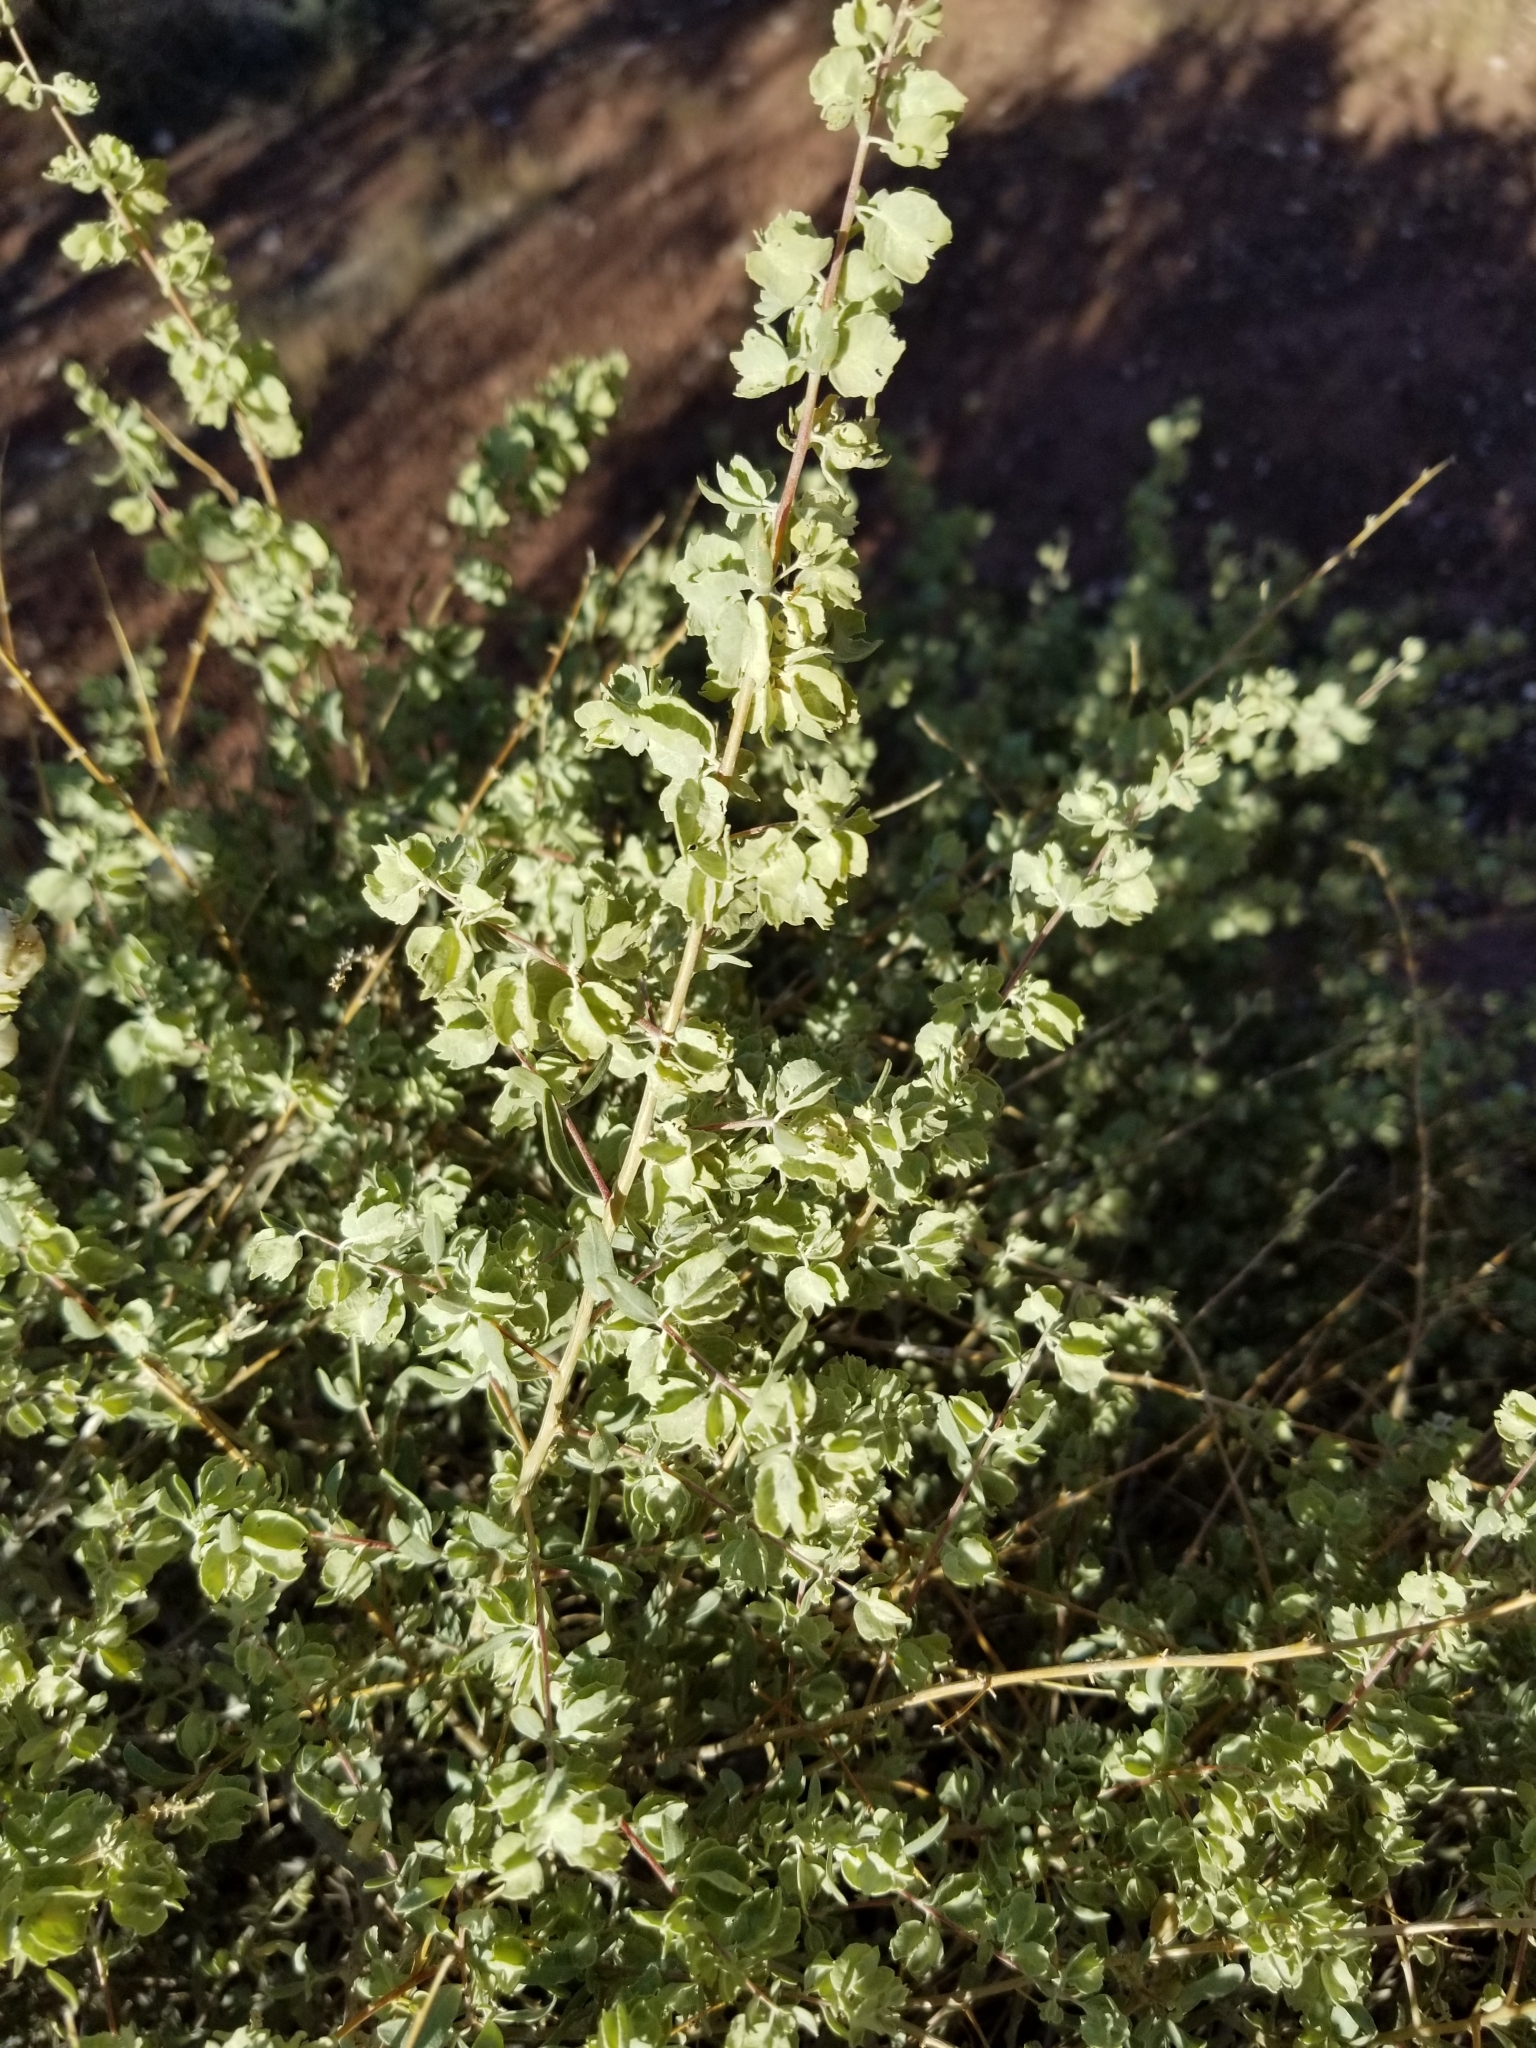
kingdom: Plantae
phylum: Tracheophyta
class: Magnoliopsida
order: Caryophyllales
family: Amaranthaceae
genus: Atriplex
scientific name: Atriplex canescens
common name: Four-wing saltbush
